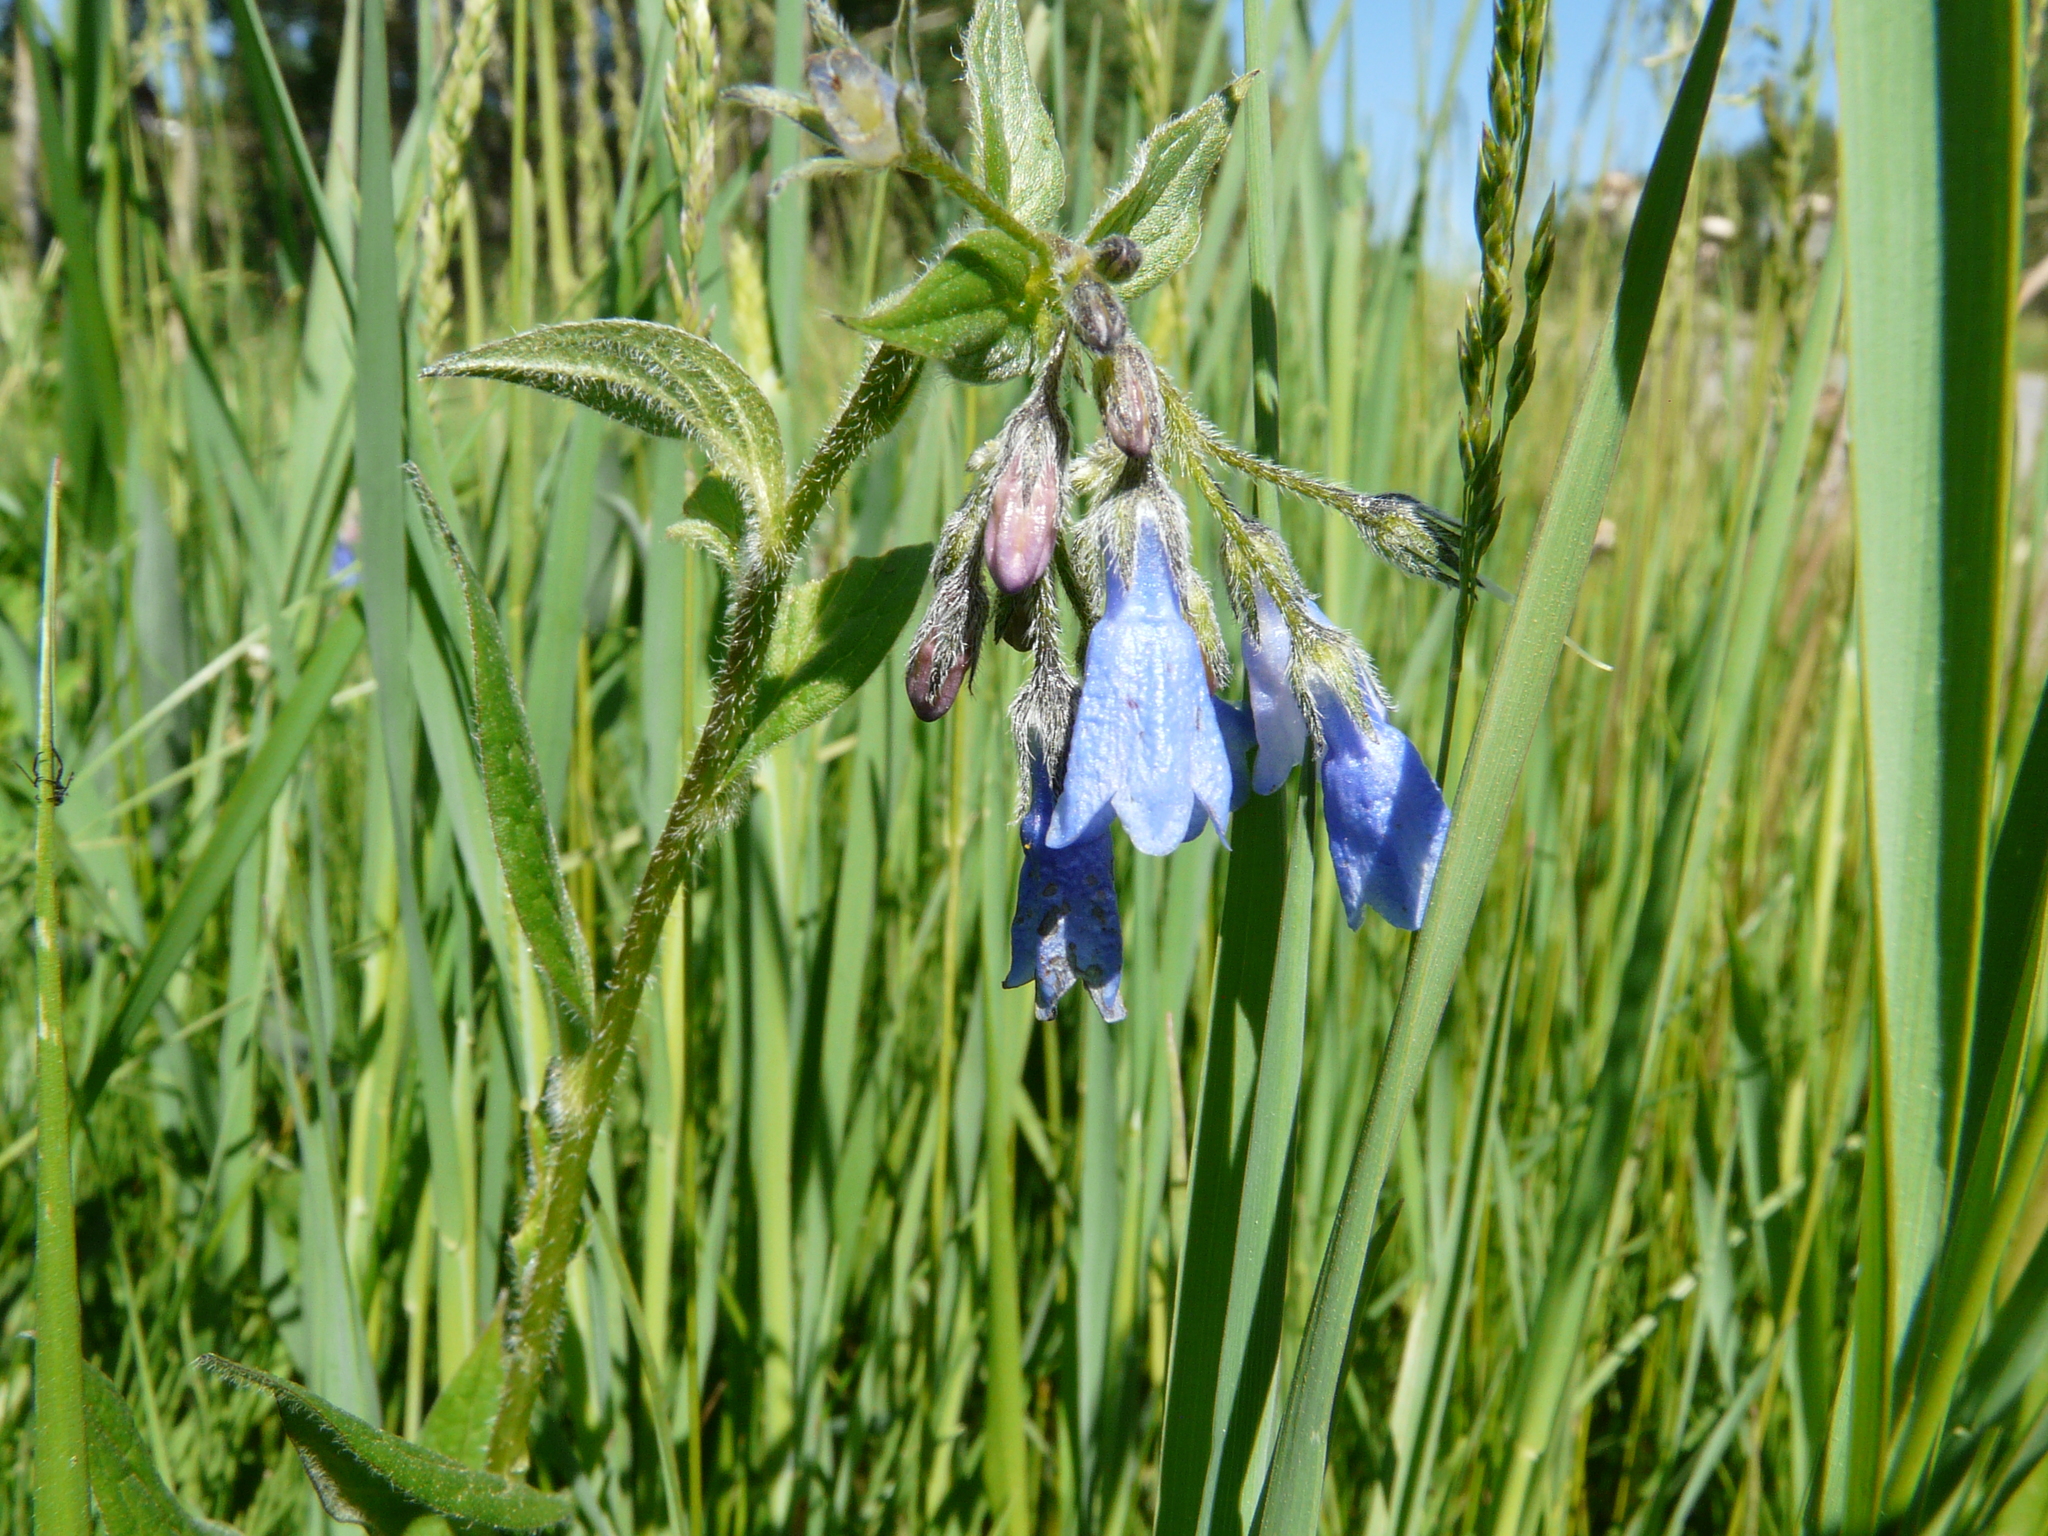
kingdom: Plantae
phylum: Tracheophyta
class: Magnoliopsida
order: Boraginales
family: Boraginaceae
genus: Mertensia
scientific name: Mertensia paniculata
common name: Panicled bluebells
